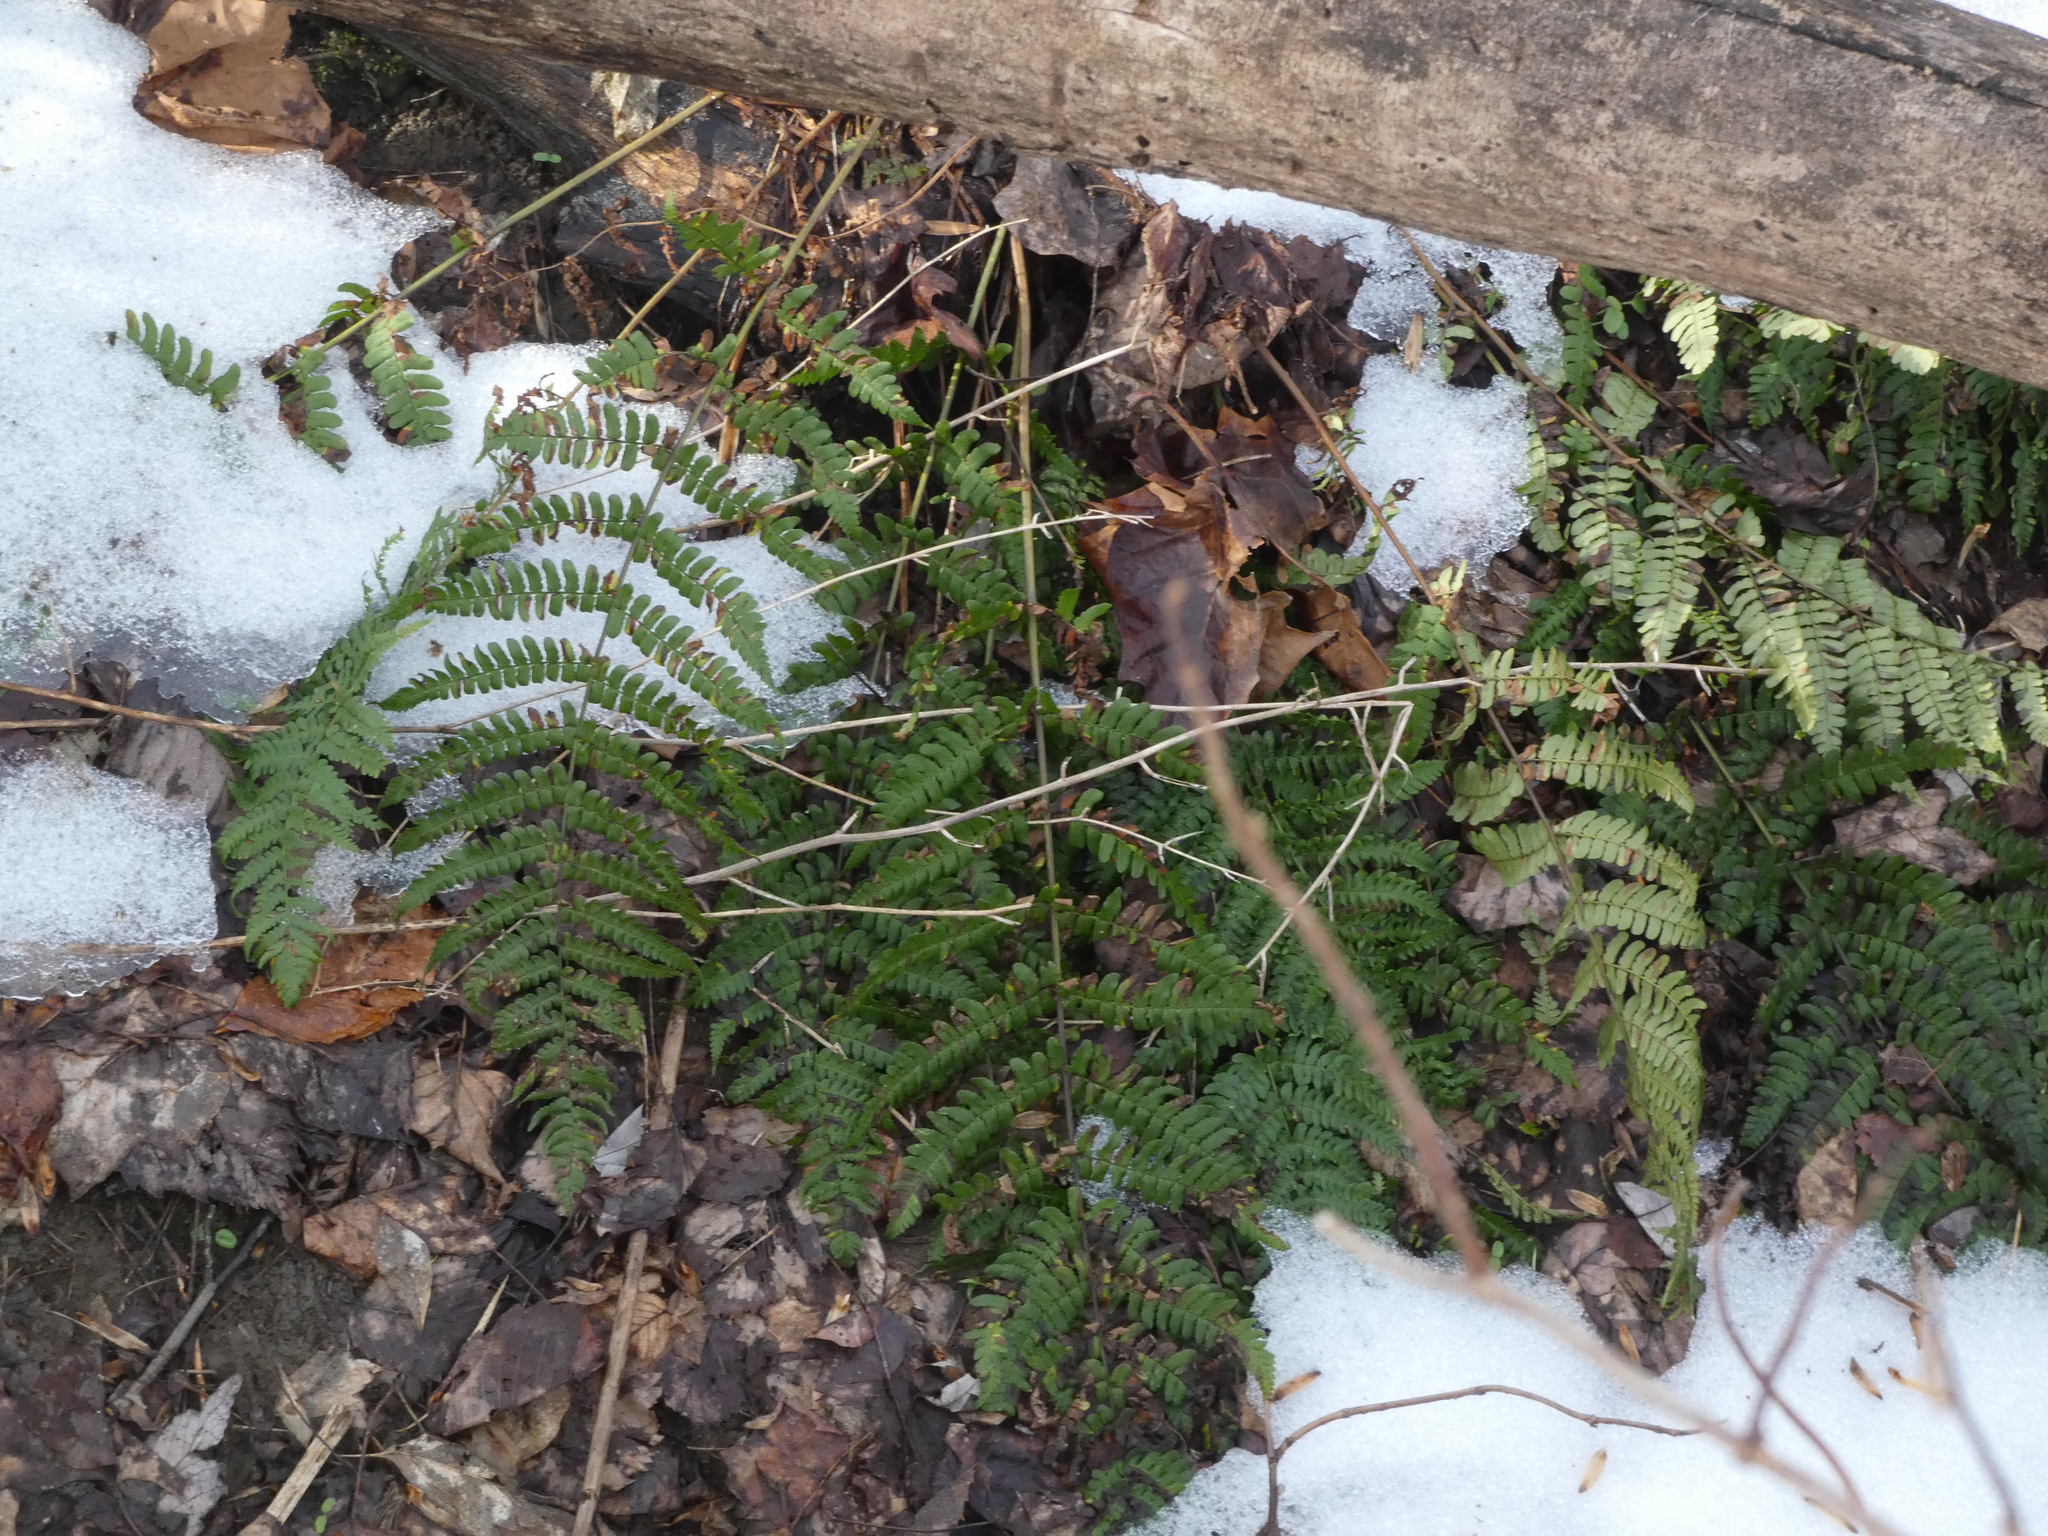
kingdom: Plantae
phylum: Tracheophyta
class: Polypodiopsida
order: Polypodiales
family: Dryopteridaceae
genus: Dryopteris
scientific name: Dryopteris marginalis
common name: Marginal wood fern
